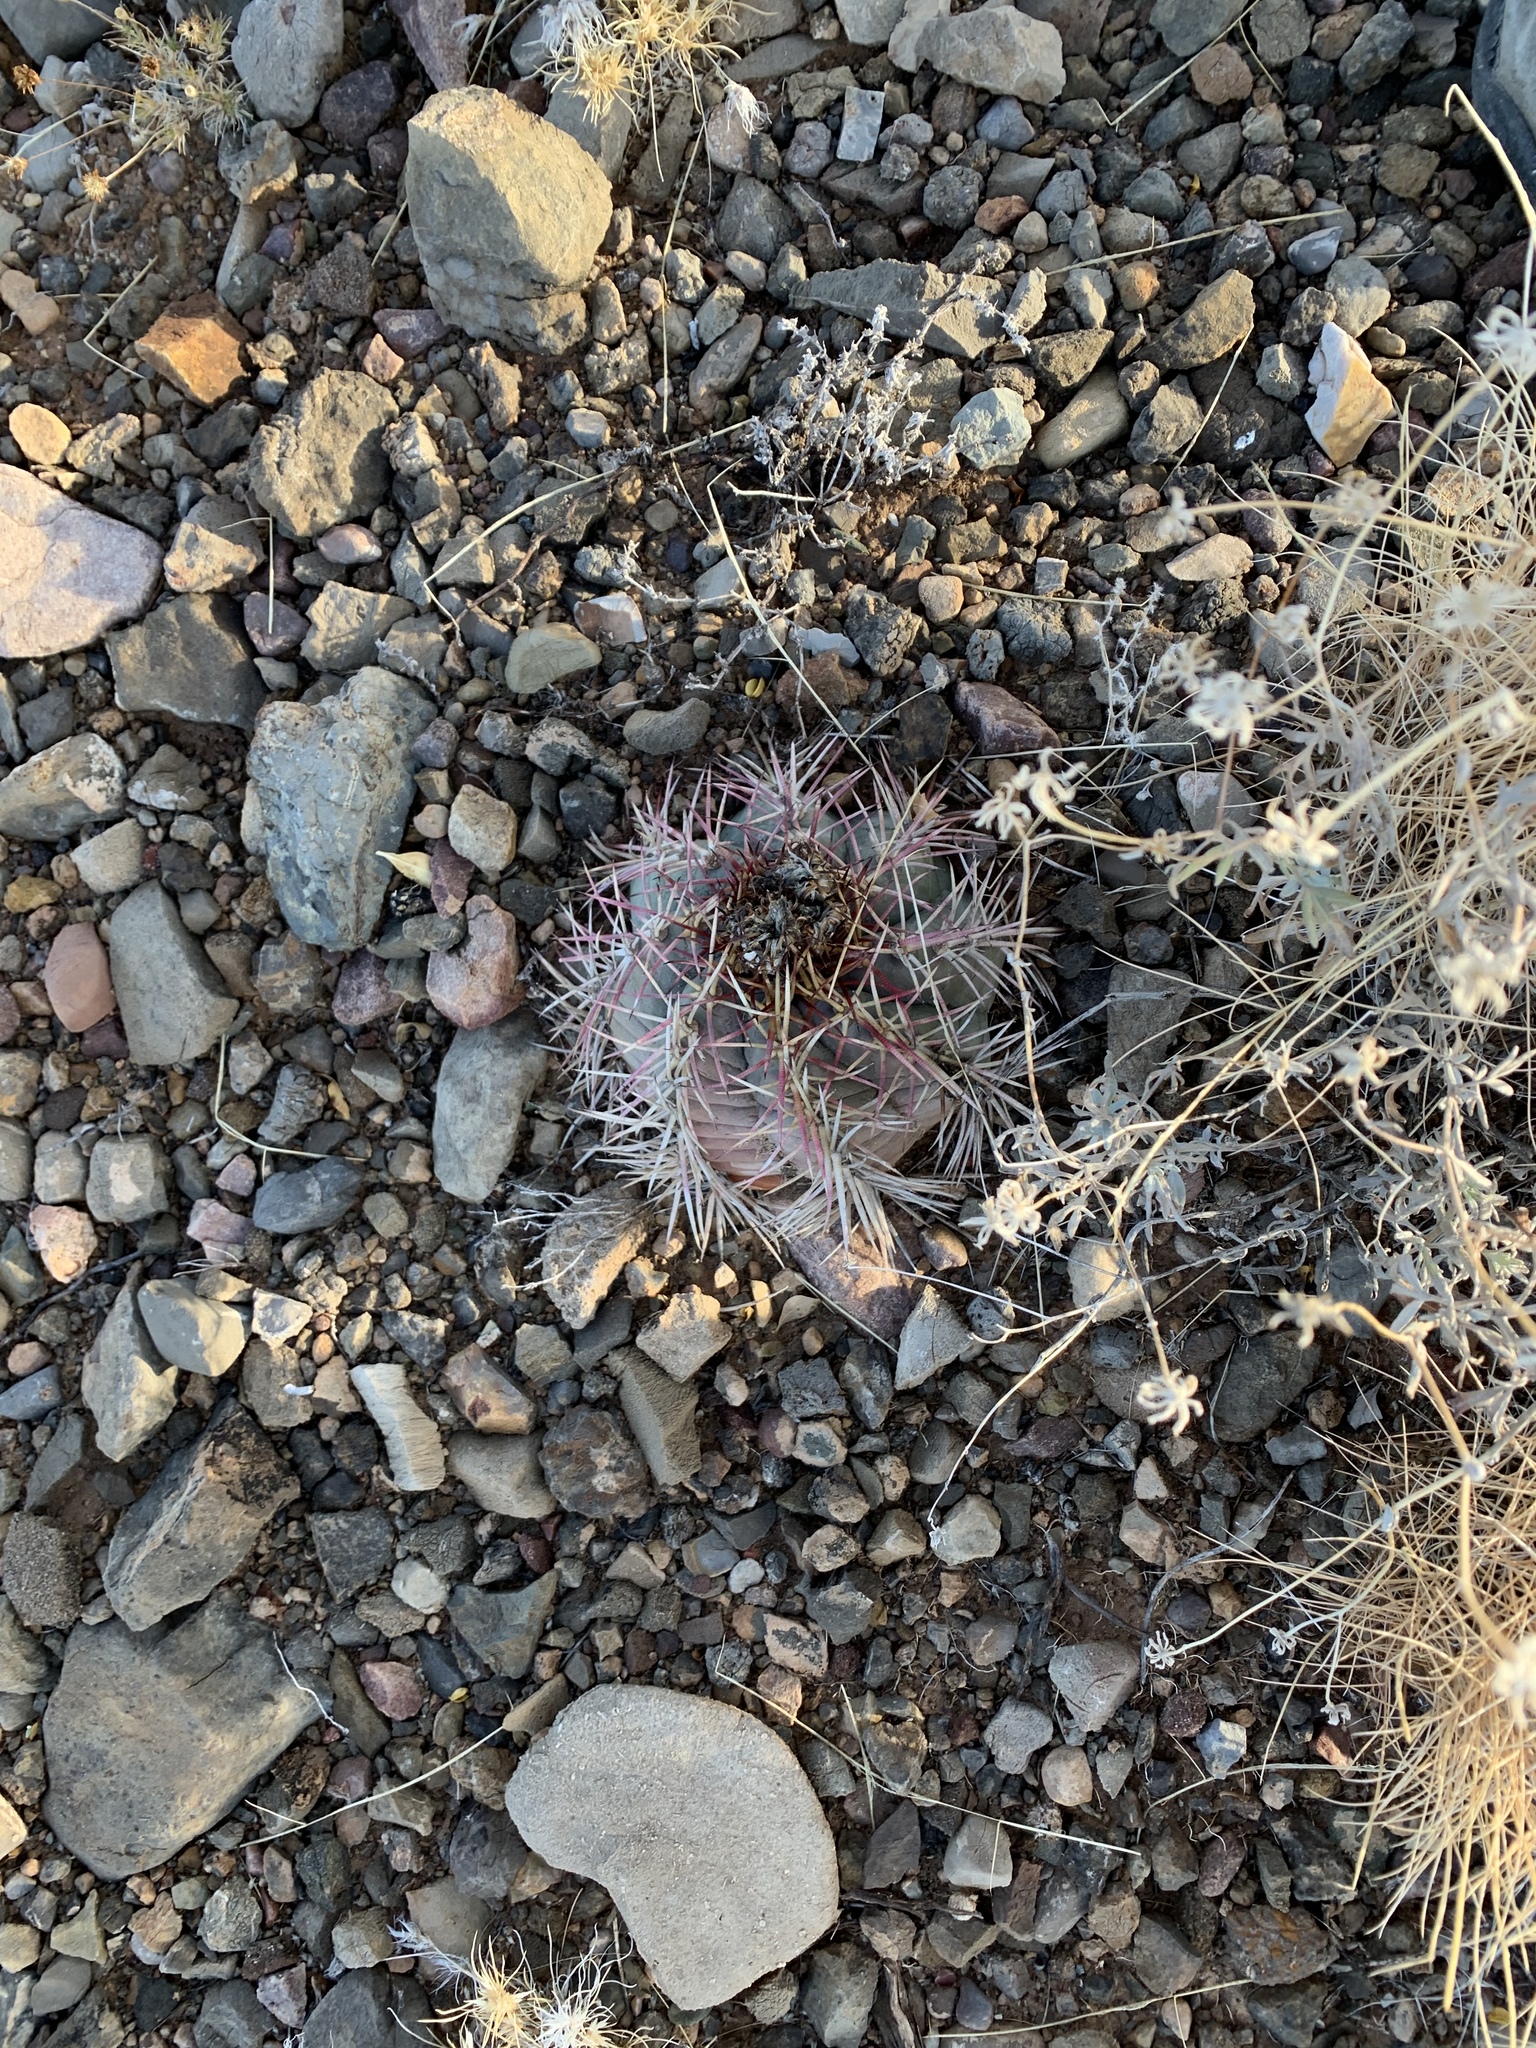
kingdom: Plantae
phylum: Tracheophyta
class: Magnoliopsida
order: Caryophyllales
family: Cactaceae
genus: Echinocactus
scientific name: Echinocactus horizonthalonius
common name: Devilshead
